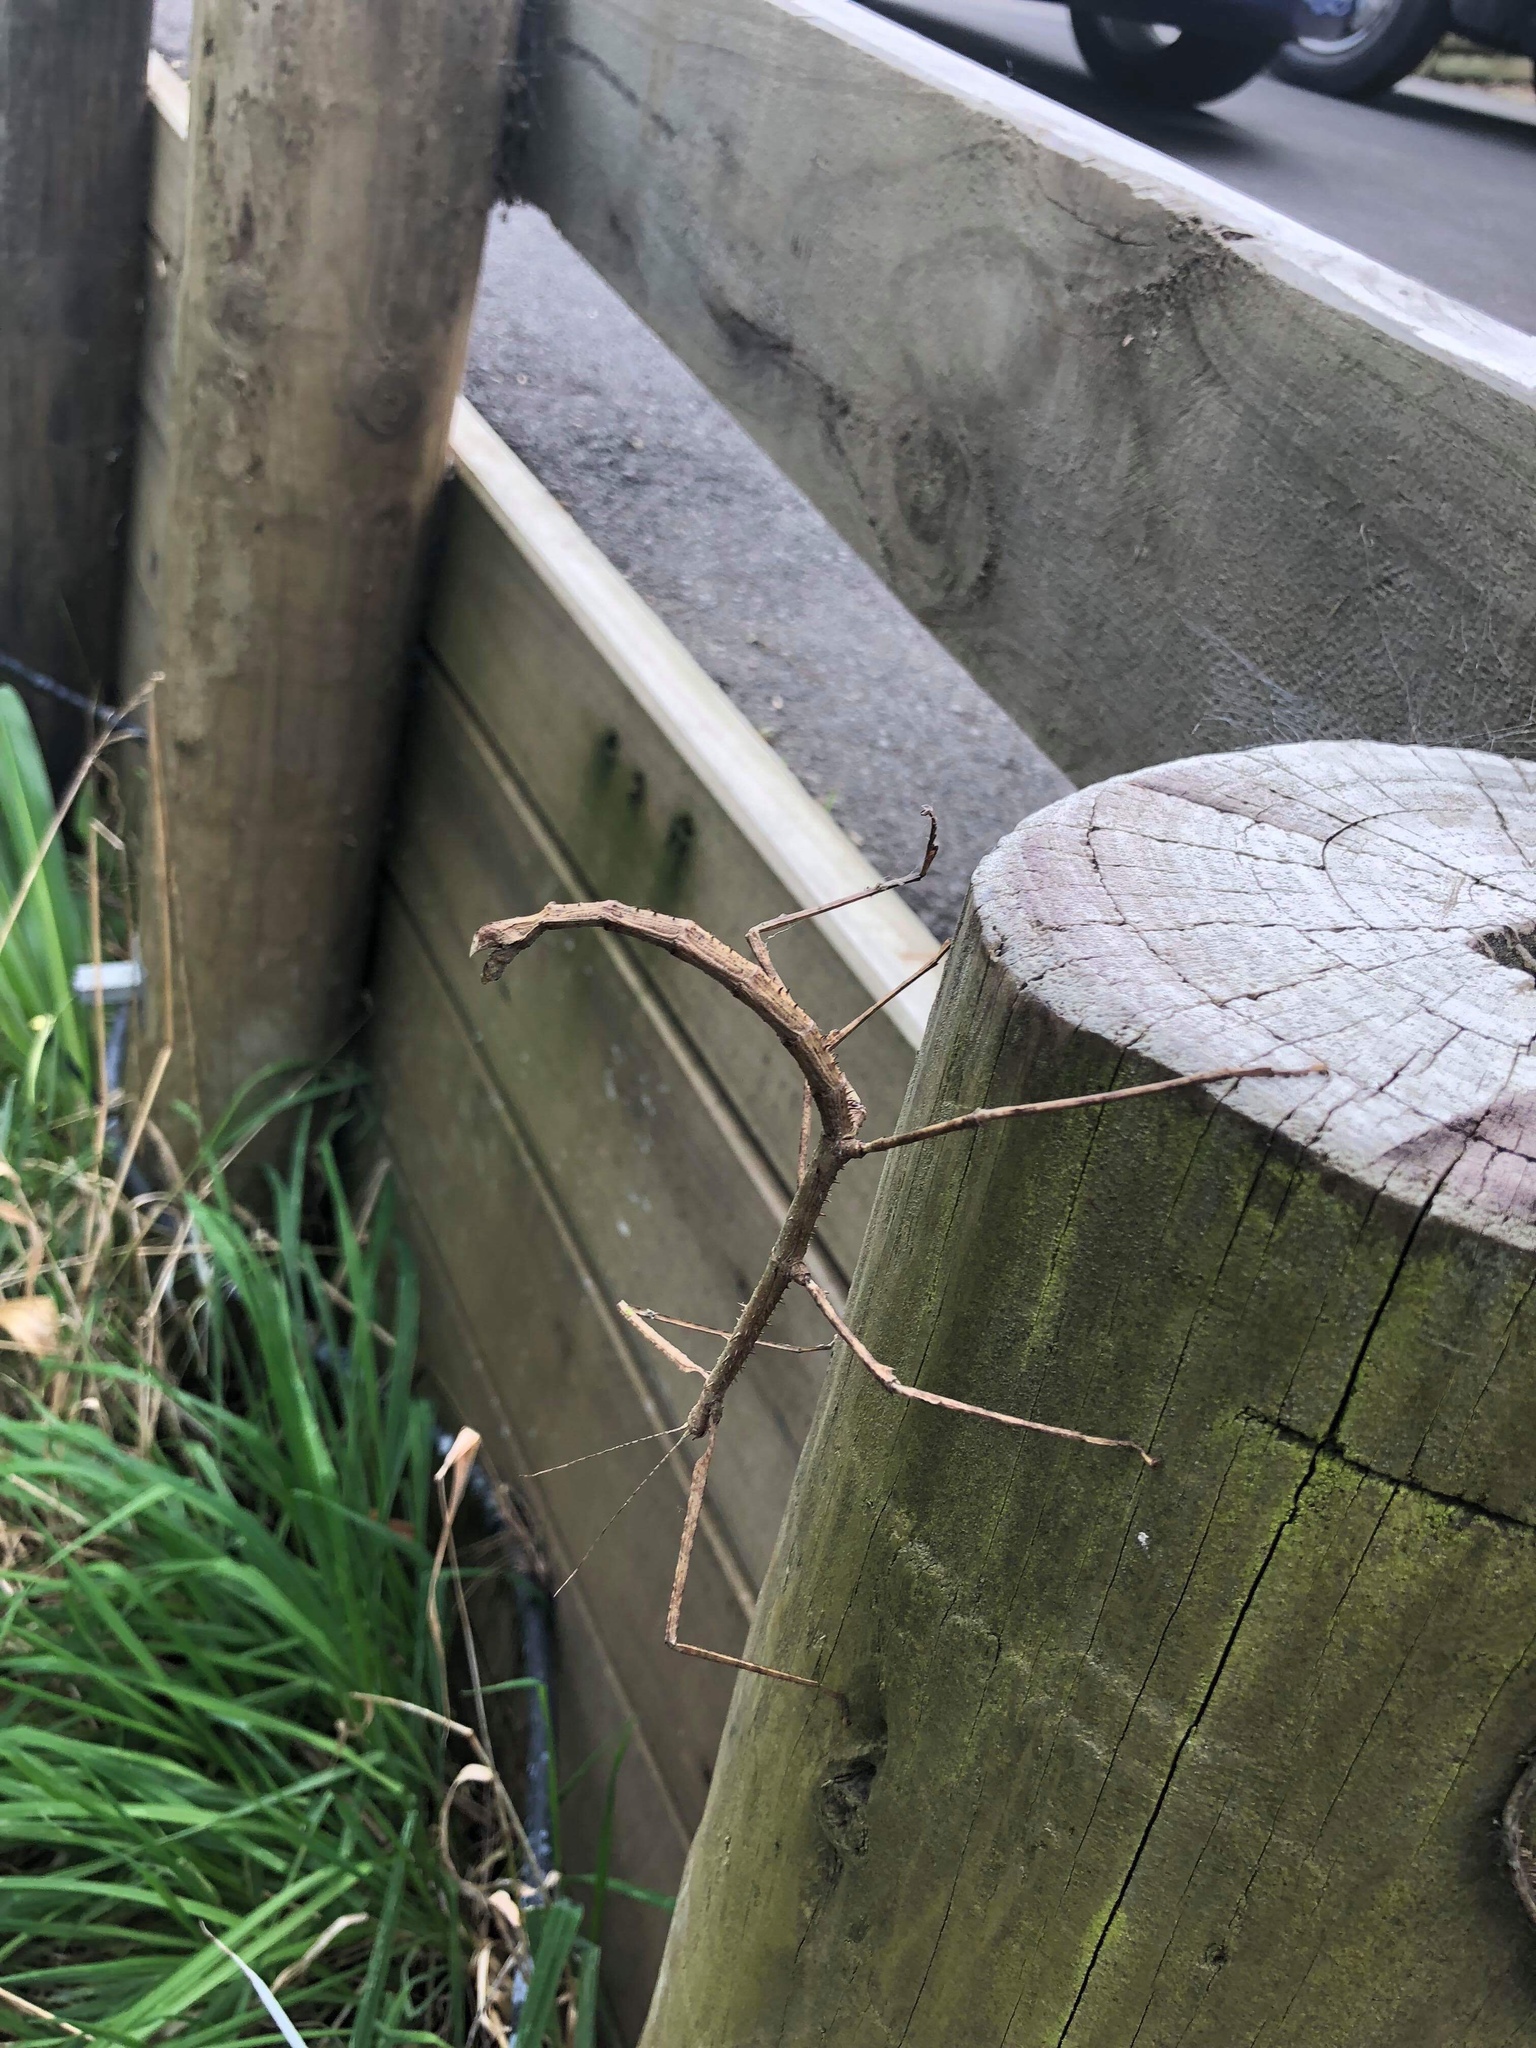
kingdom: Animalia
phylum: Arthropoda
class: Insecta
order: Phasmida
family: Phasmatidae
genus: Argosarchus
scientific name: Argosarchus horridus
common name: Bristly stick insect
